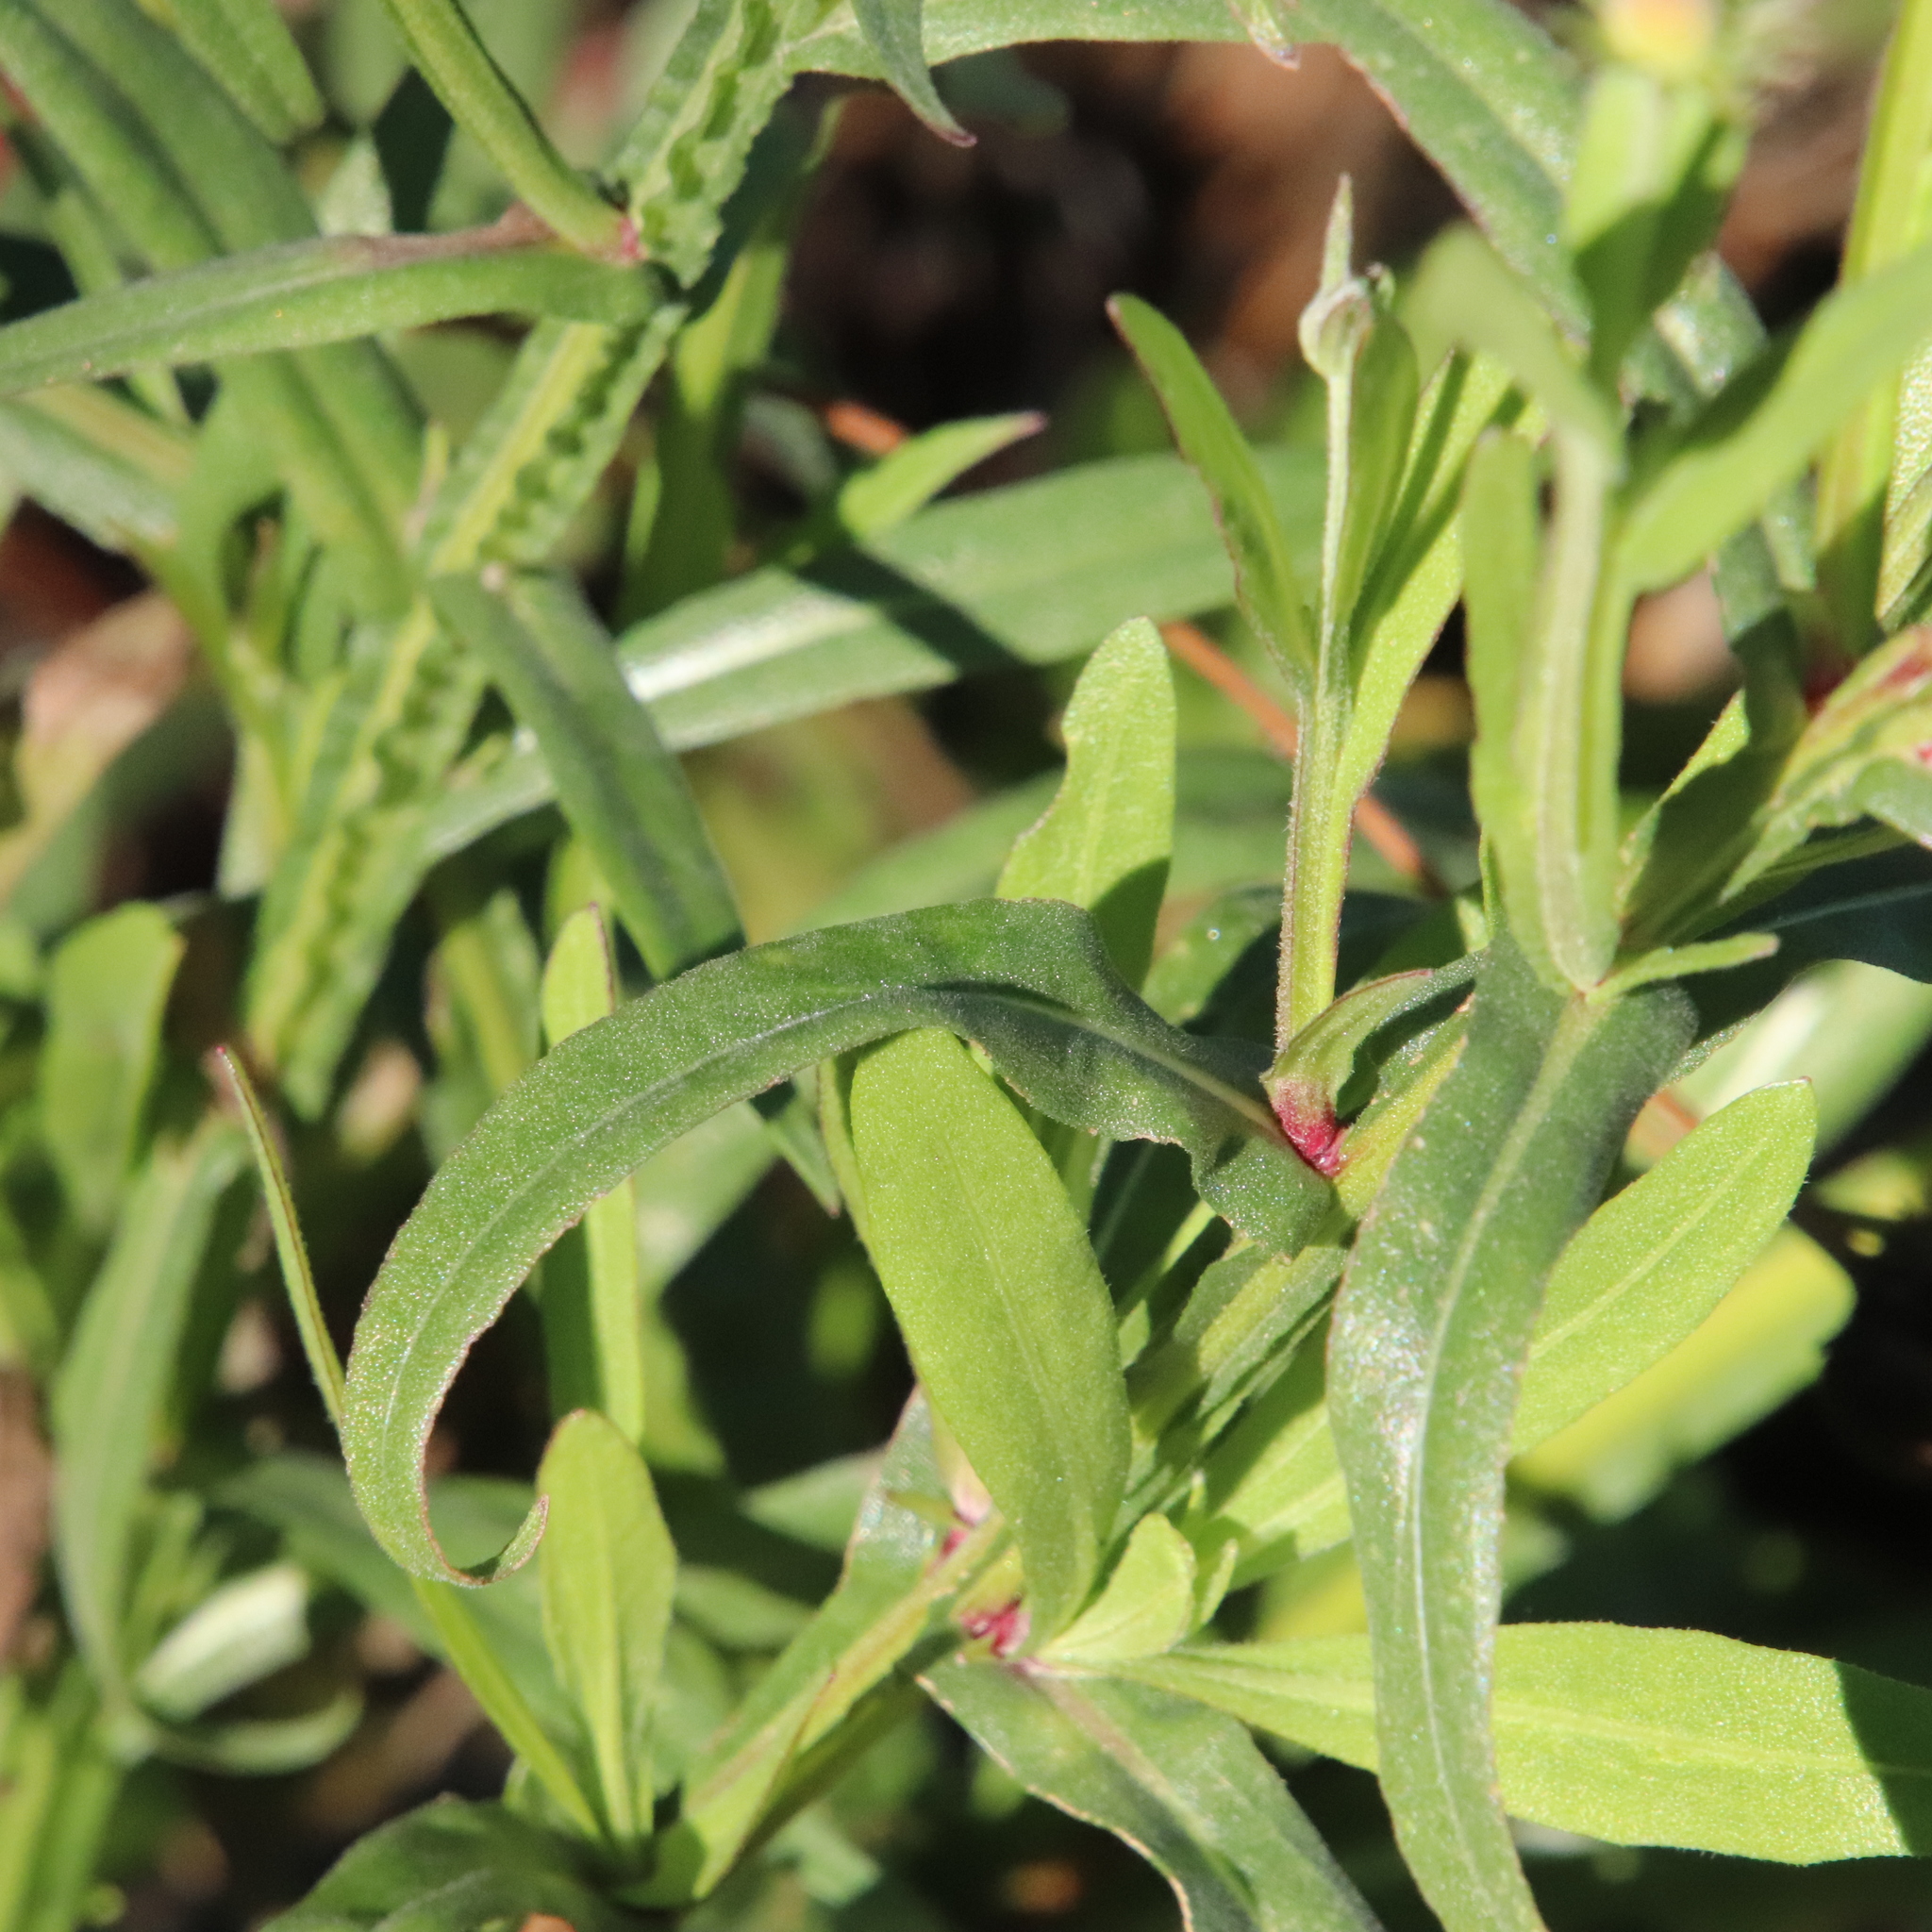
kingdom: Plantae
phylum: Tracheophyta
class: Magnoliopsida
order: Asterales
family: Asteraceae
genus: Helenium
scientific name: Helenium puberulum
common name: Sneezewort
